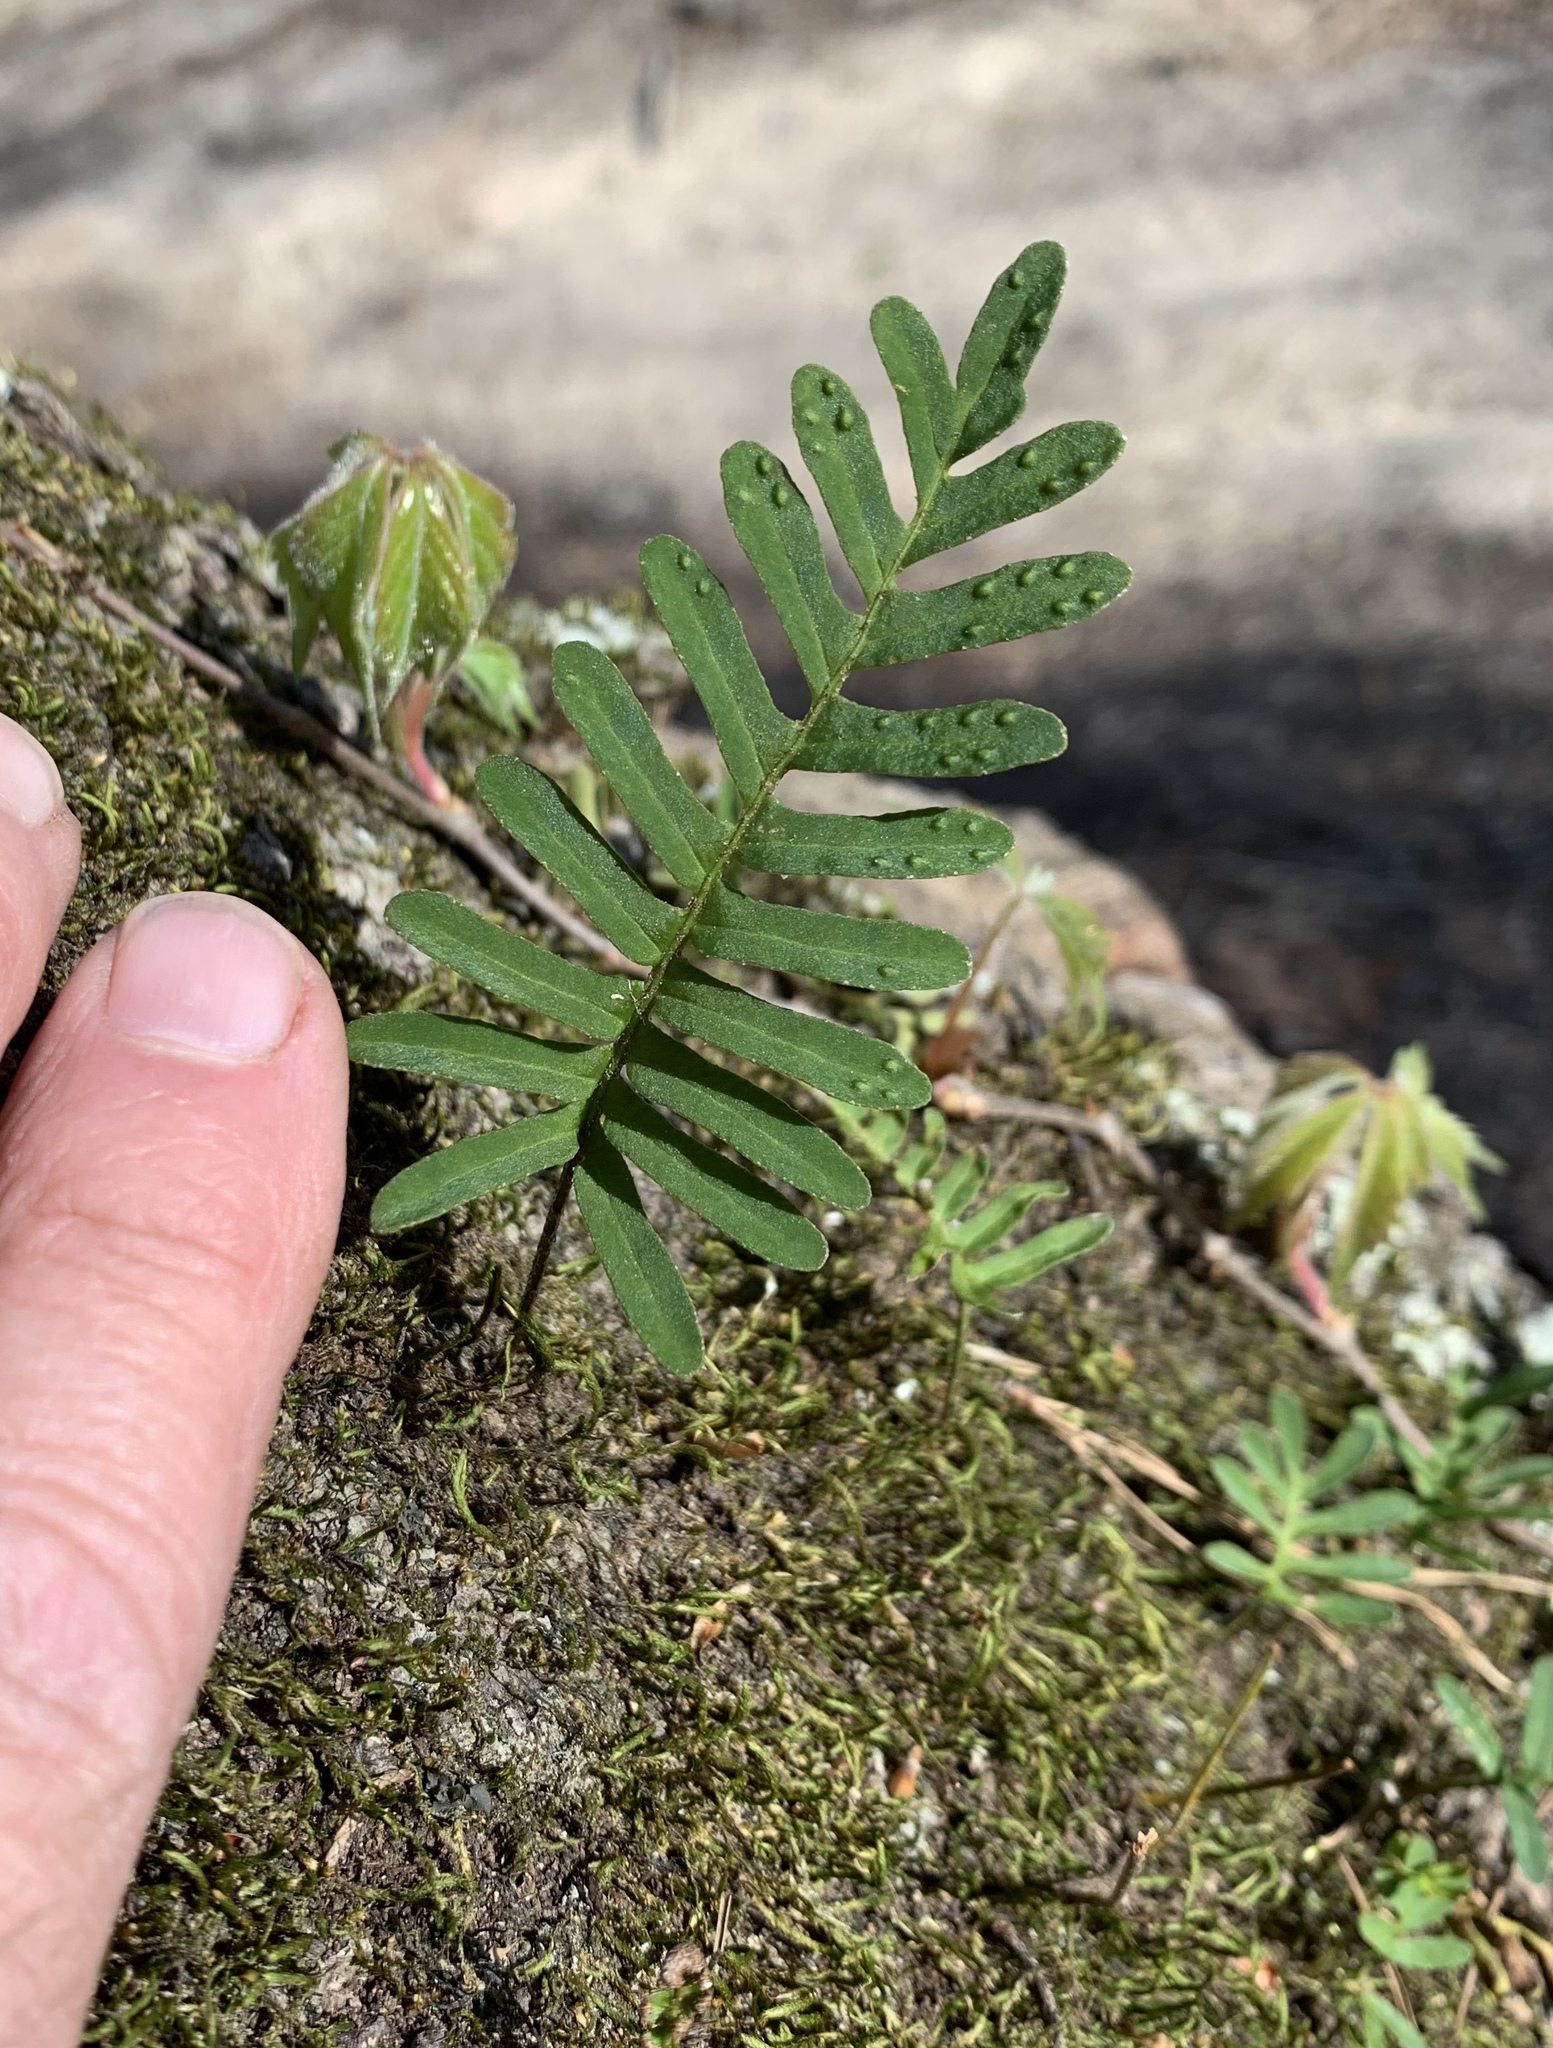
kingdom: Plantae
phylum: Tracheophyta
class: Polypodiopsida
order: Polypodiales
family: Polypodiaceae
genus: Pleopeltis
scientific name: Pleopeltis michauxiana
